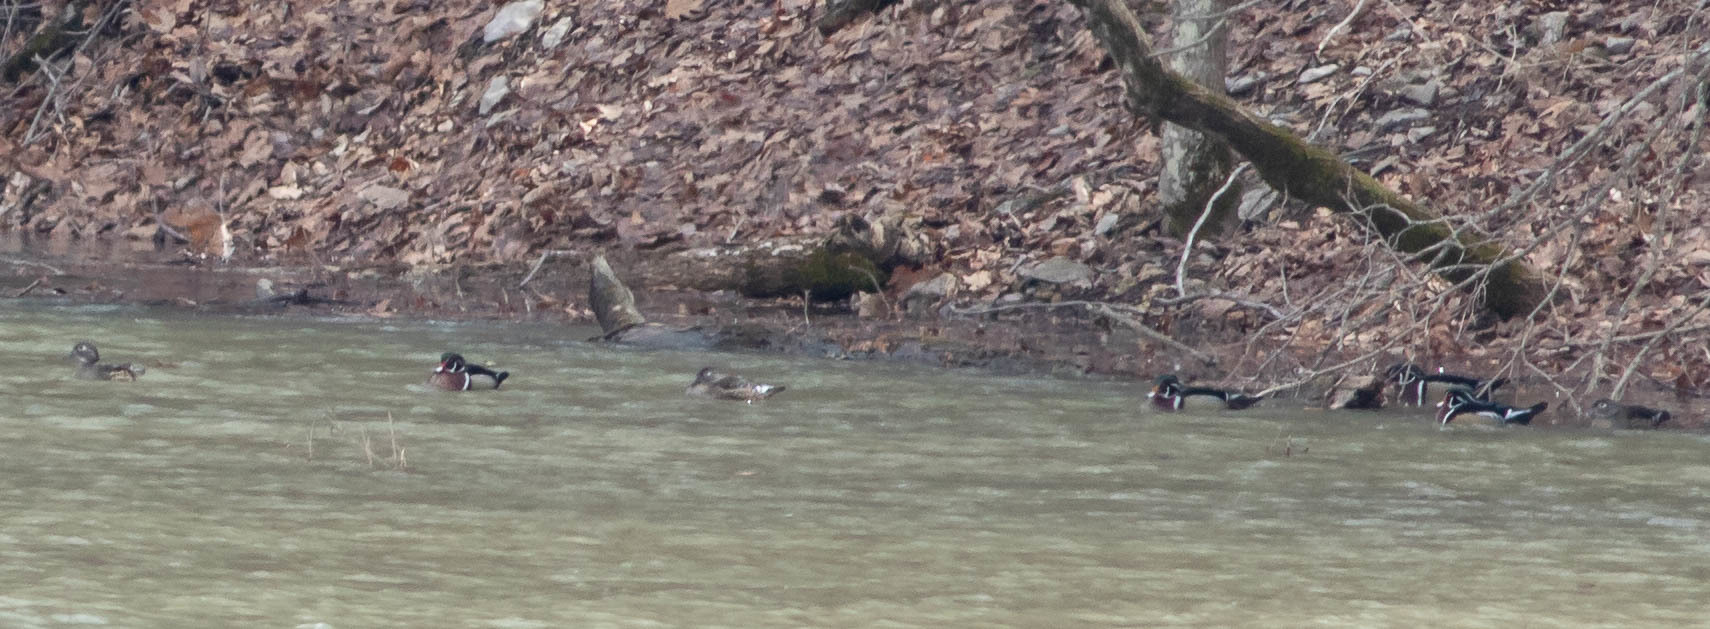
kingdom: Animalia
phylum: Chordata
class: Aves
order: Anseriformes
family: Anatidae
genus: Aix
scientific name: Aix sponsa
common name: Wood duck
